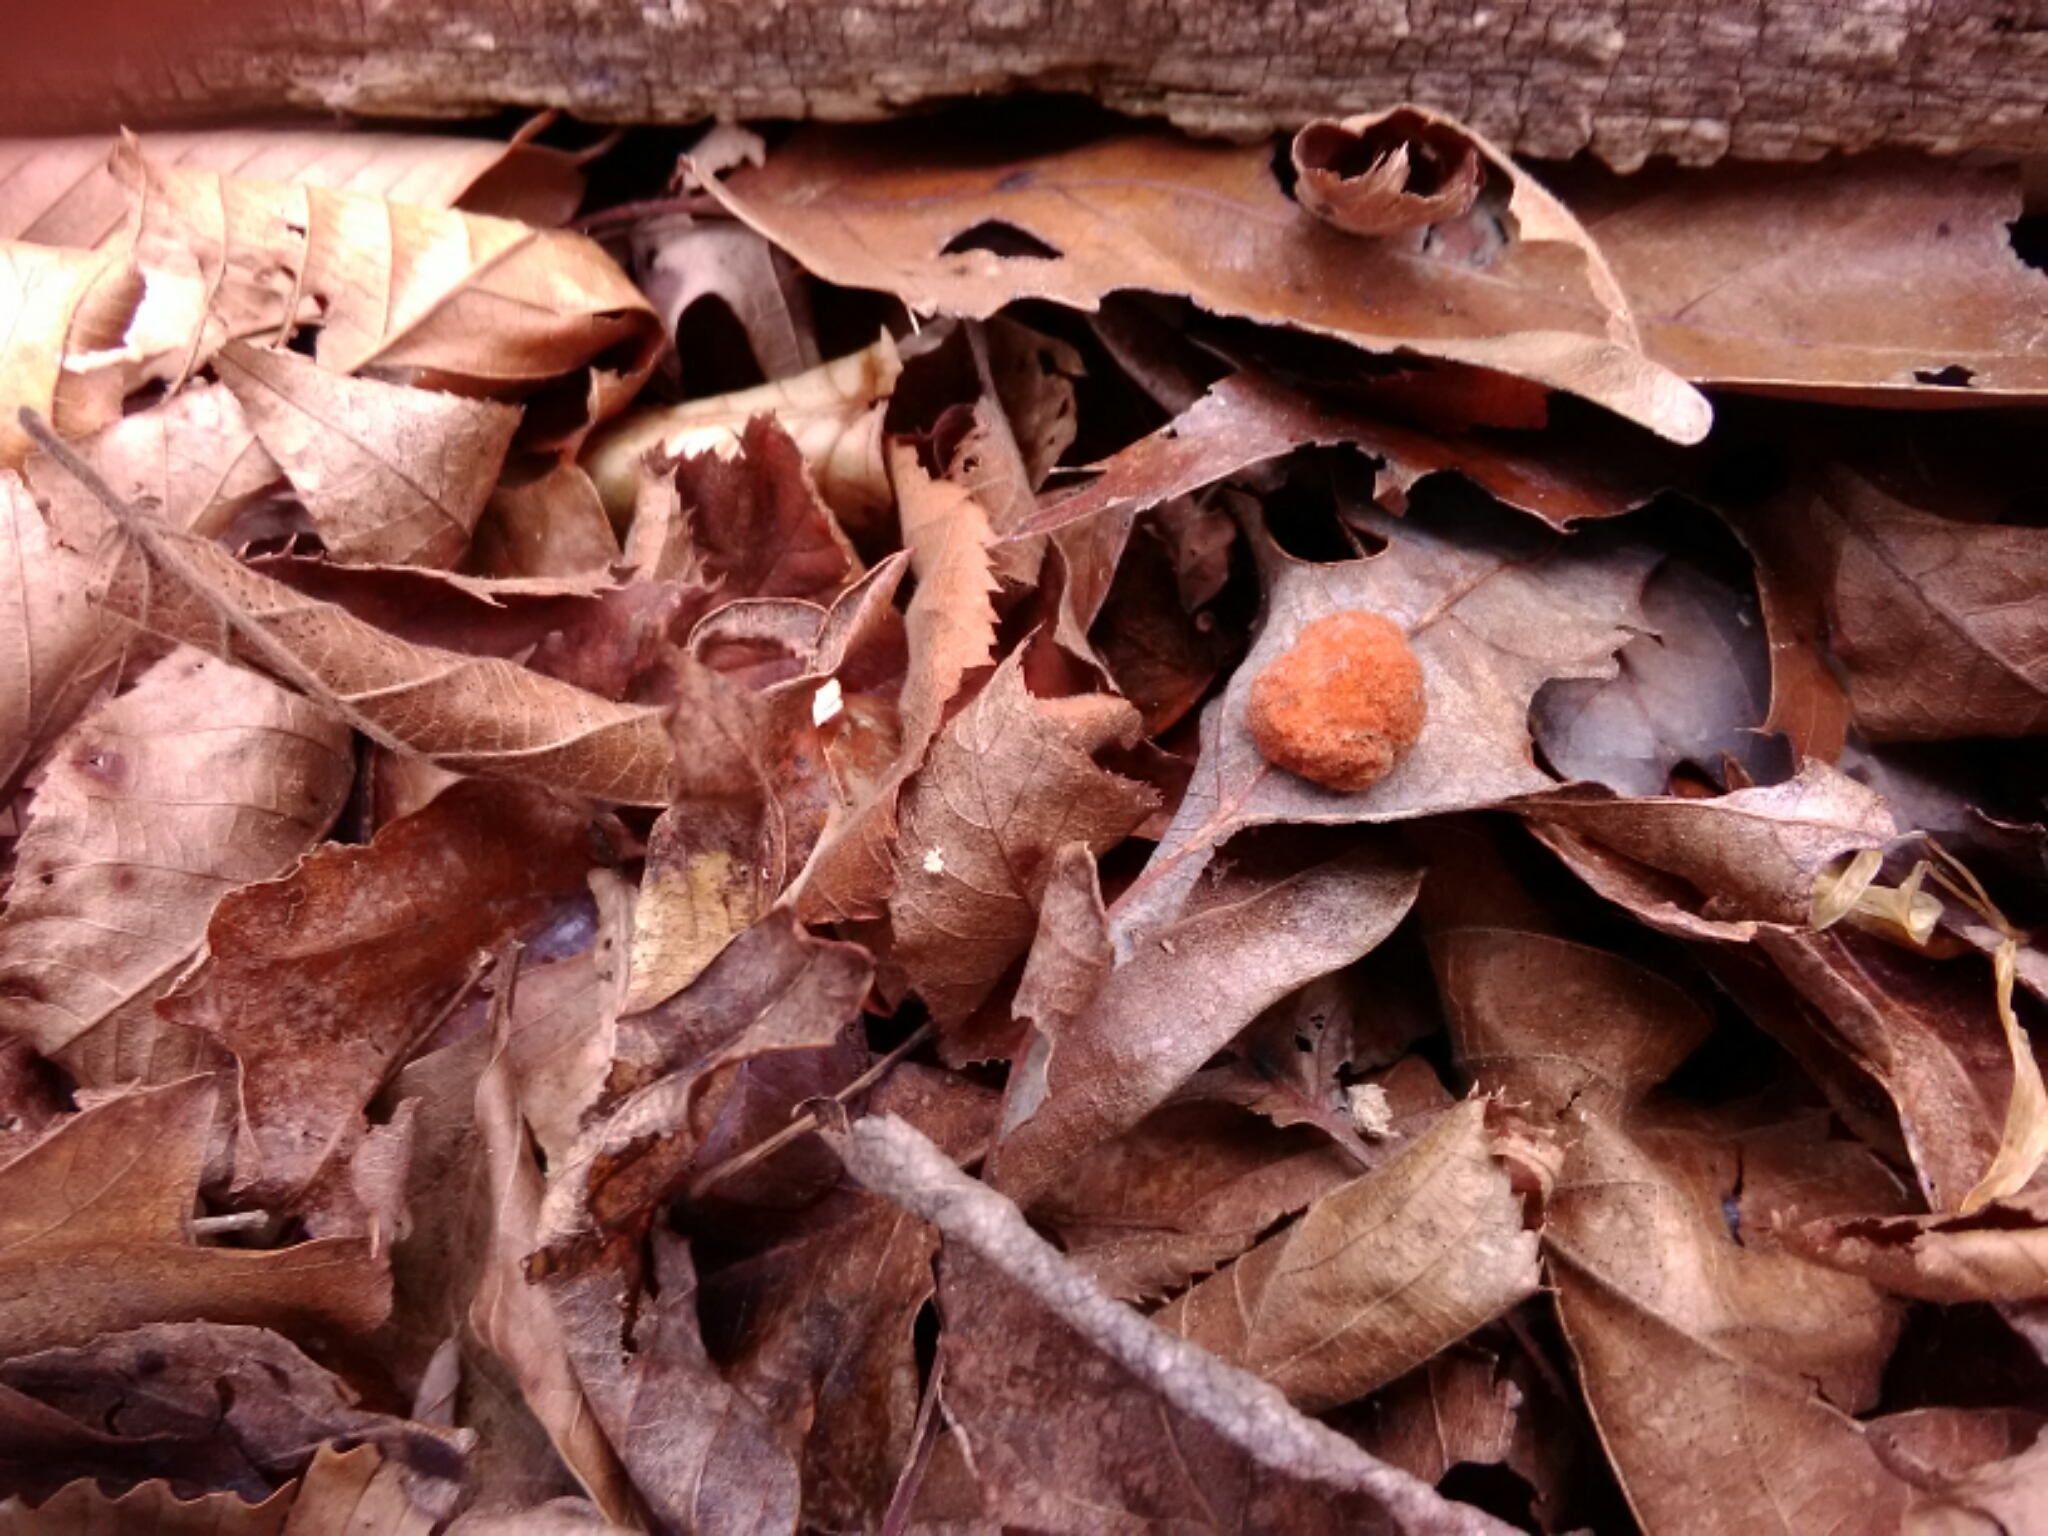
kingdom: Animalia
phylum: Arthropoda
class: Insecta
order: Hymenoptera
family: Cynipidae
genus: Andricus
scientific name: Andricus quercusflocci
